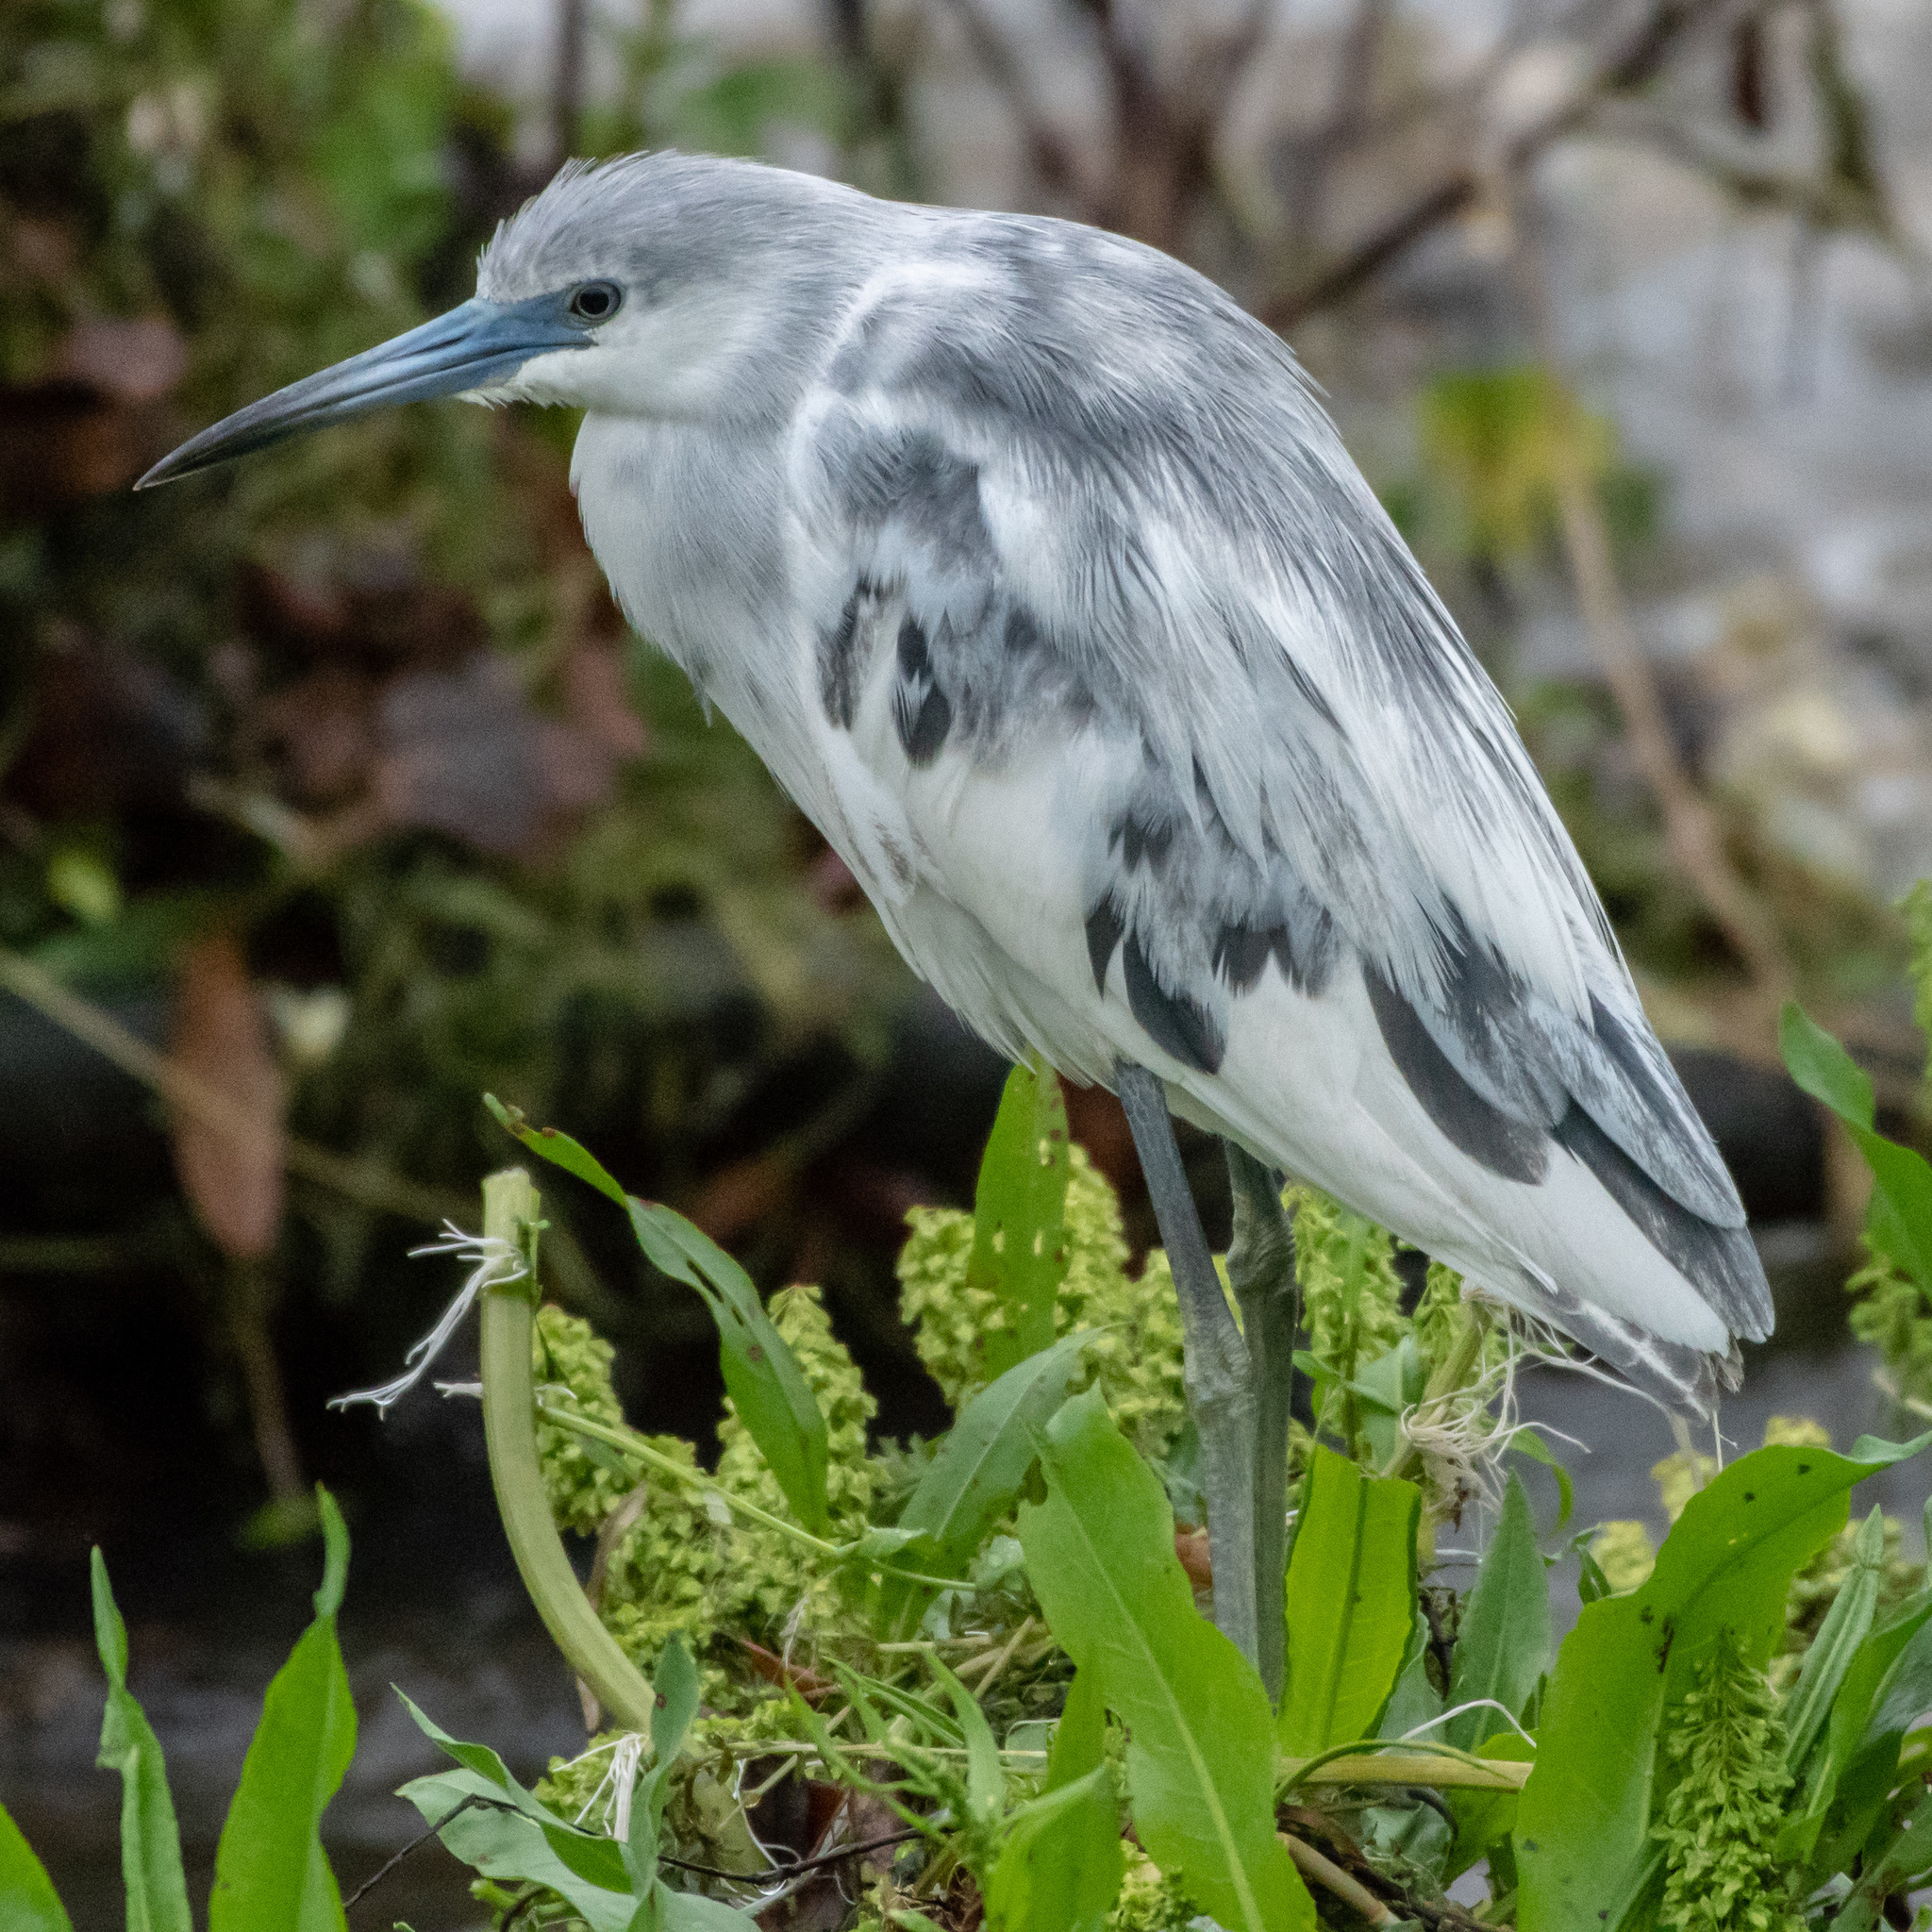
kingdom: Animalia
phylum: Chordata
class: Aves
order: Pelecaniformes
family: Ardeidae
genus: Egretta
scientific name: Egretta caerulea
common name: Little blue heron
